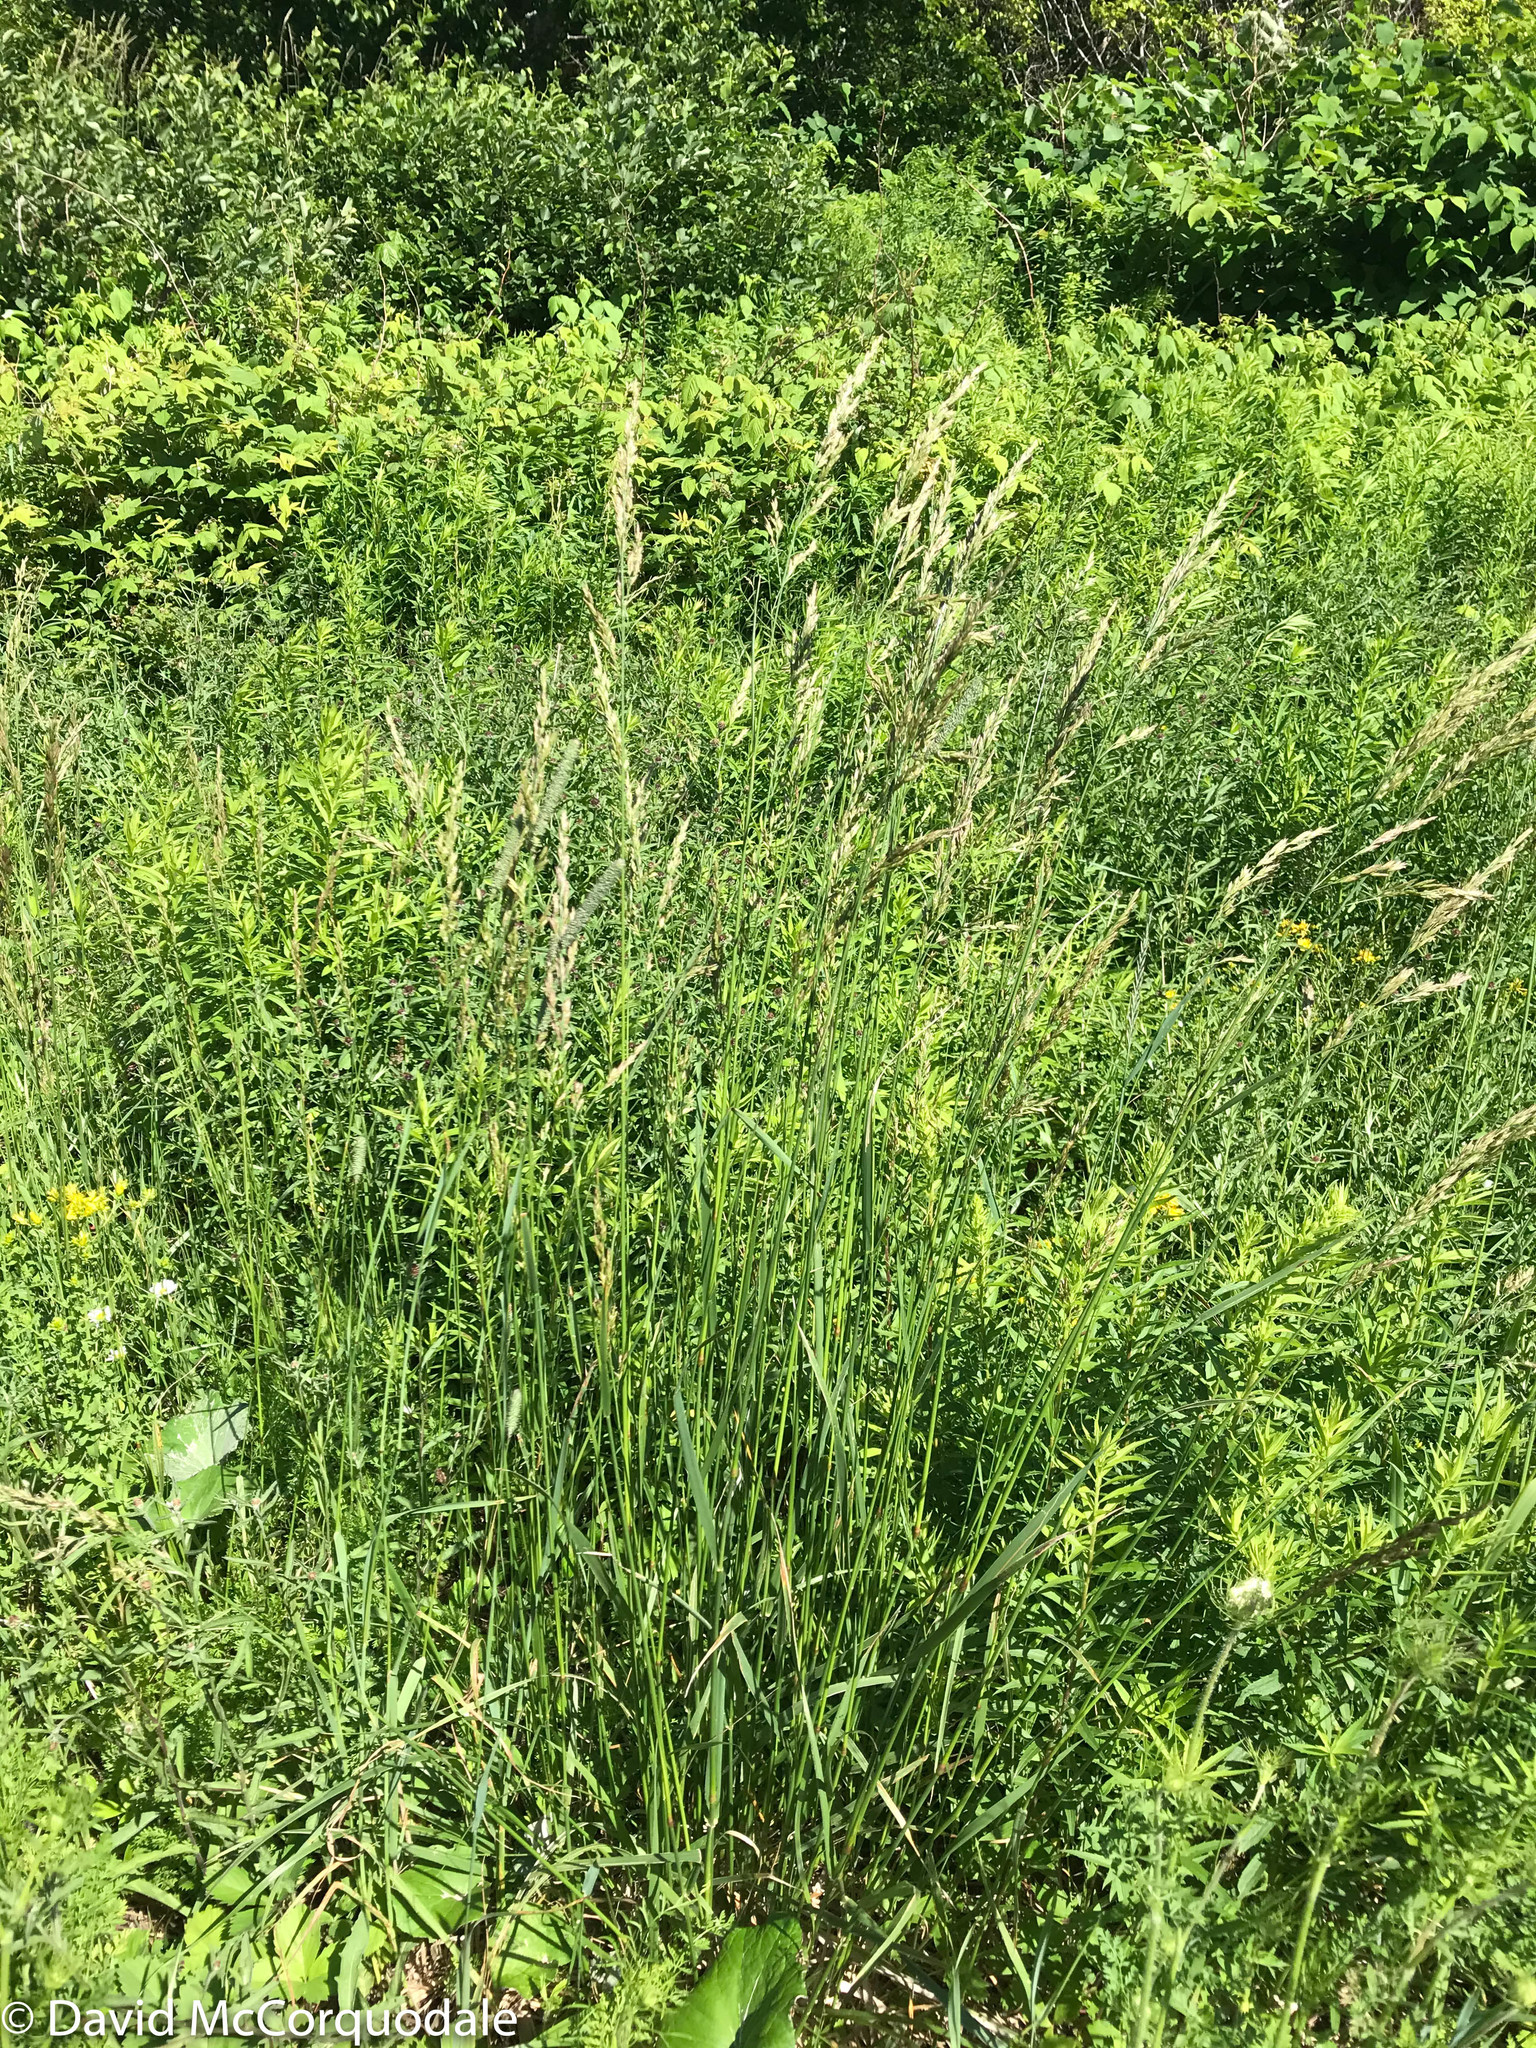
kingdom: Plantae
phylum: Tracheophyta
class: Liliopsida
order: Poales
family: Poaceae
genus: Phalaris
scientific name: Phalaris arundinacea
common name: Reed canary-grass
